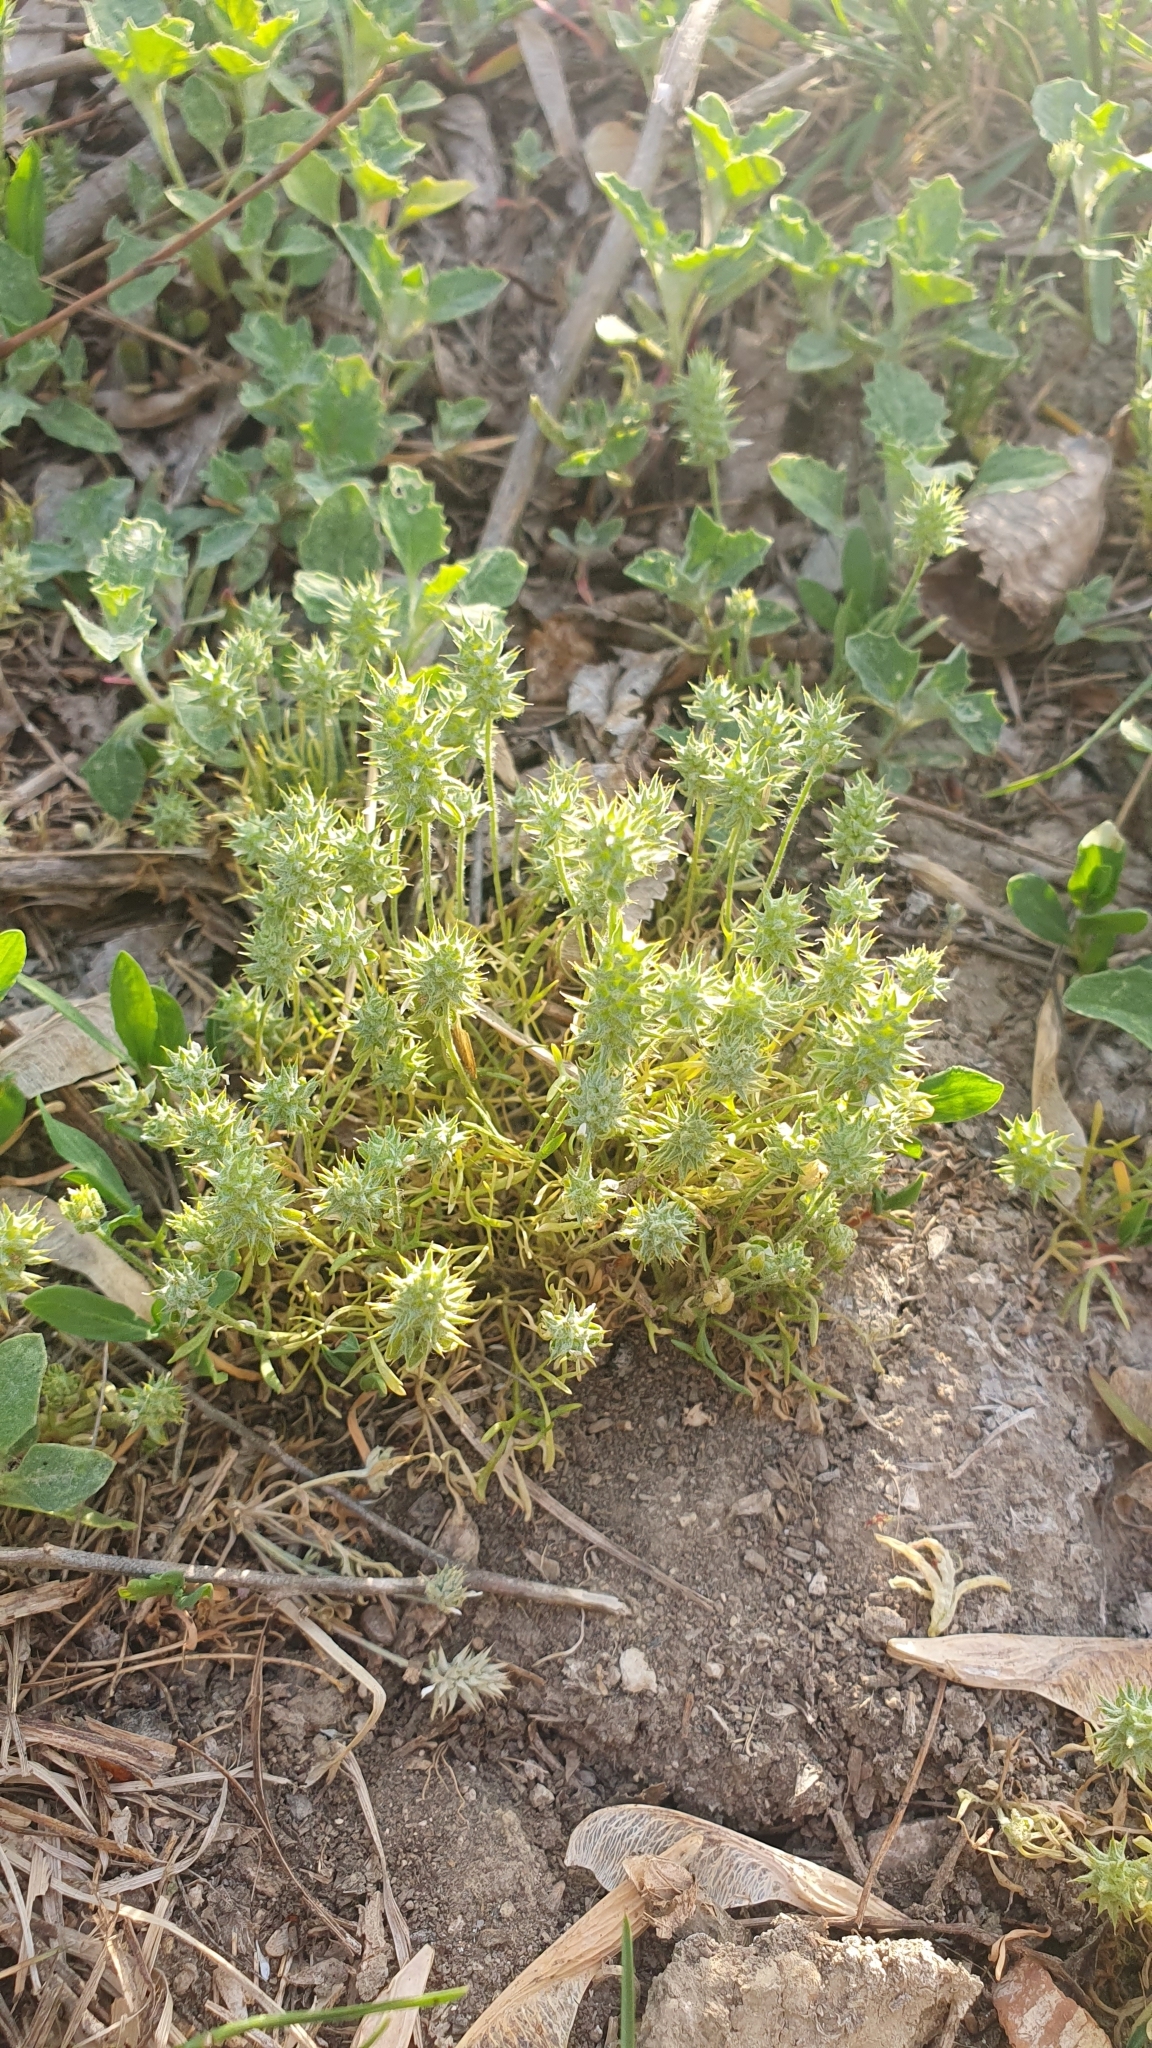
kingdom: Plantae
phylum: Tracheophyta
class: Magnoliopsida
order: Ranunculales
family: Ranunculaceae
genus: Ceratocephala
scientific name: Ceratocephala orthoceras
